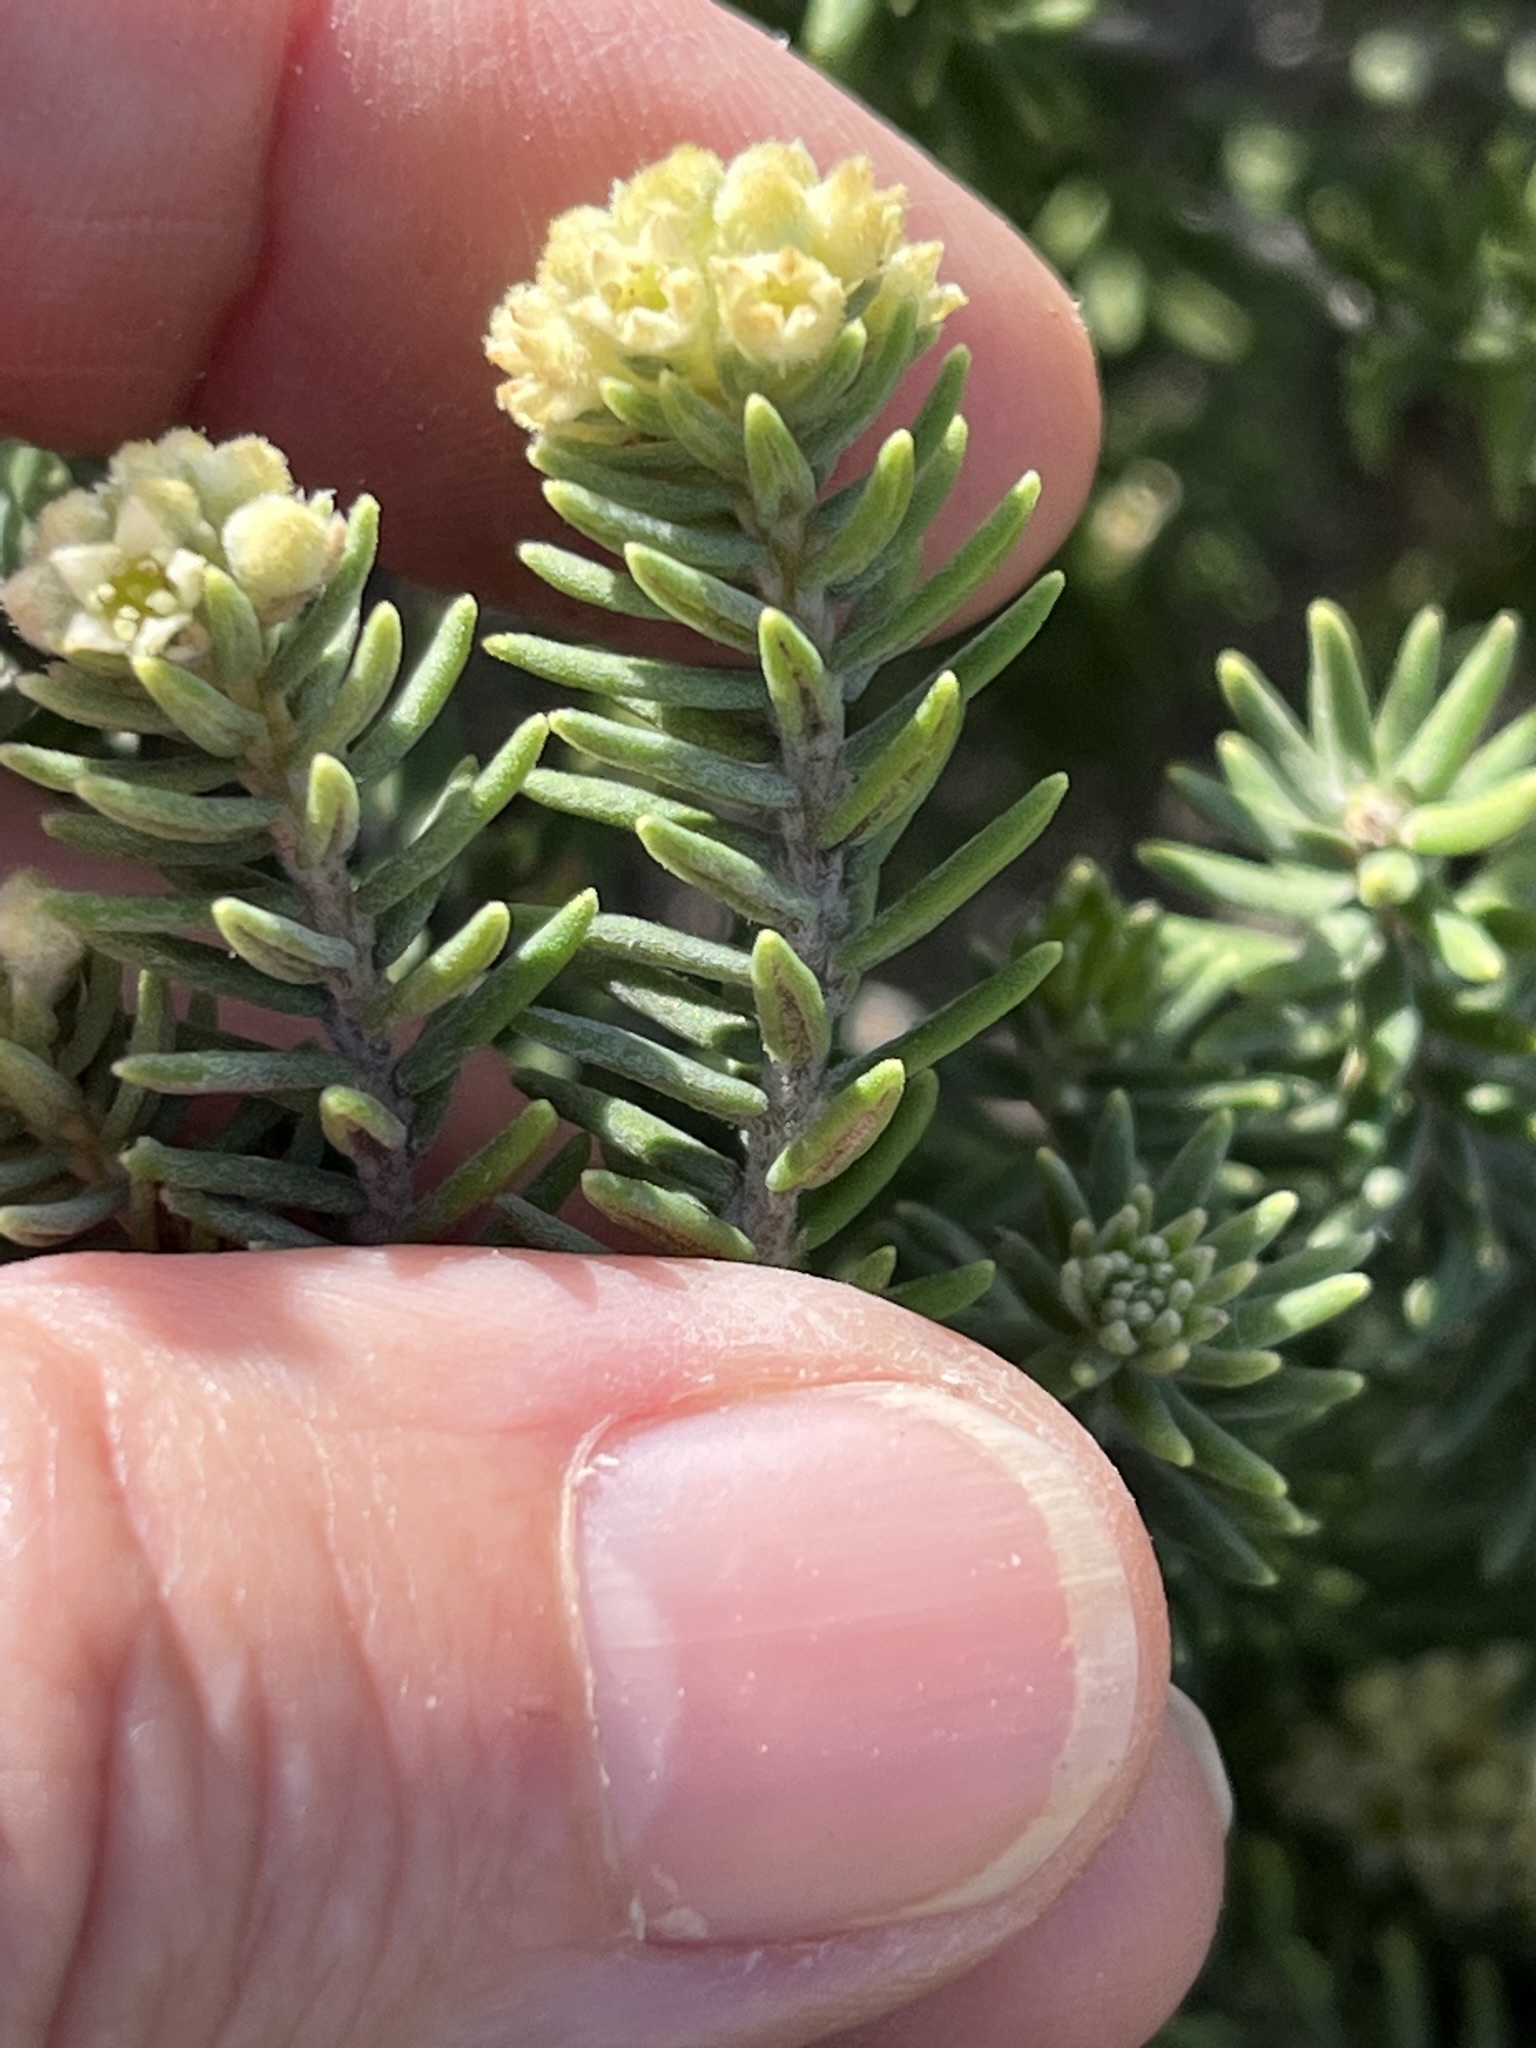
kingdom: Plantae
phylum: Tracheophyta
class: Magnoliopsida
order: Rosales
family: Rhamnaceae
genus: Phylica
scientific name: Phylica axillaris
